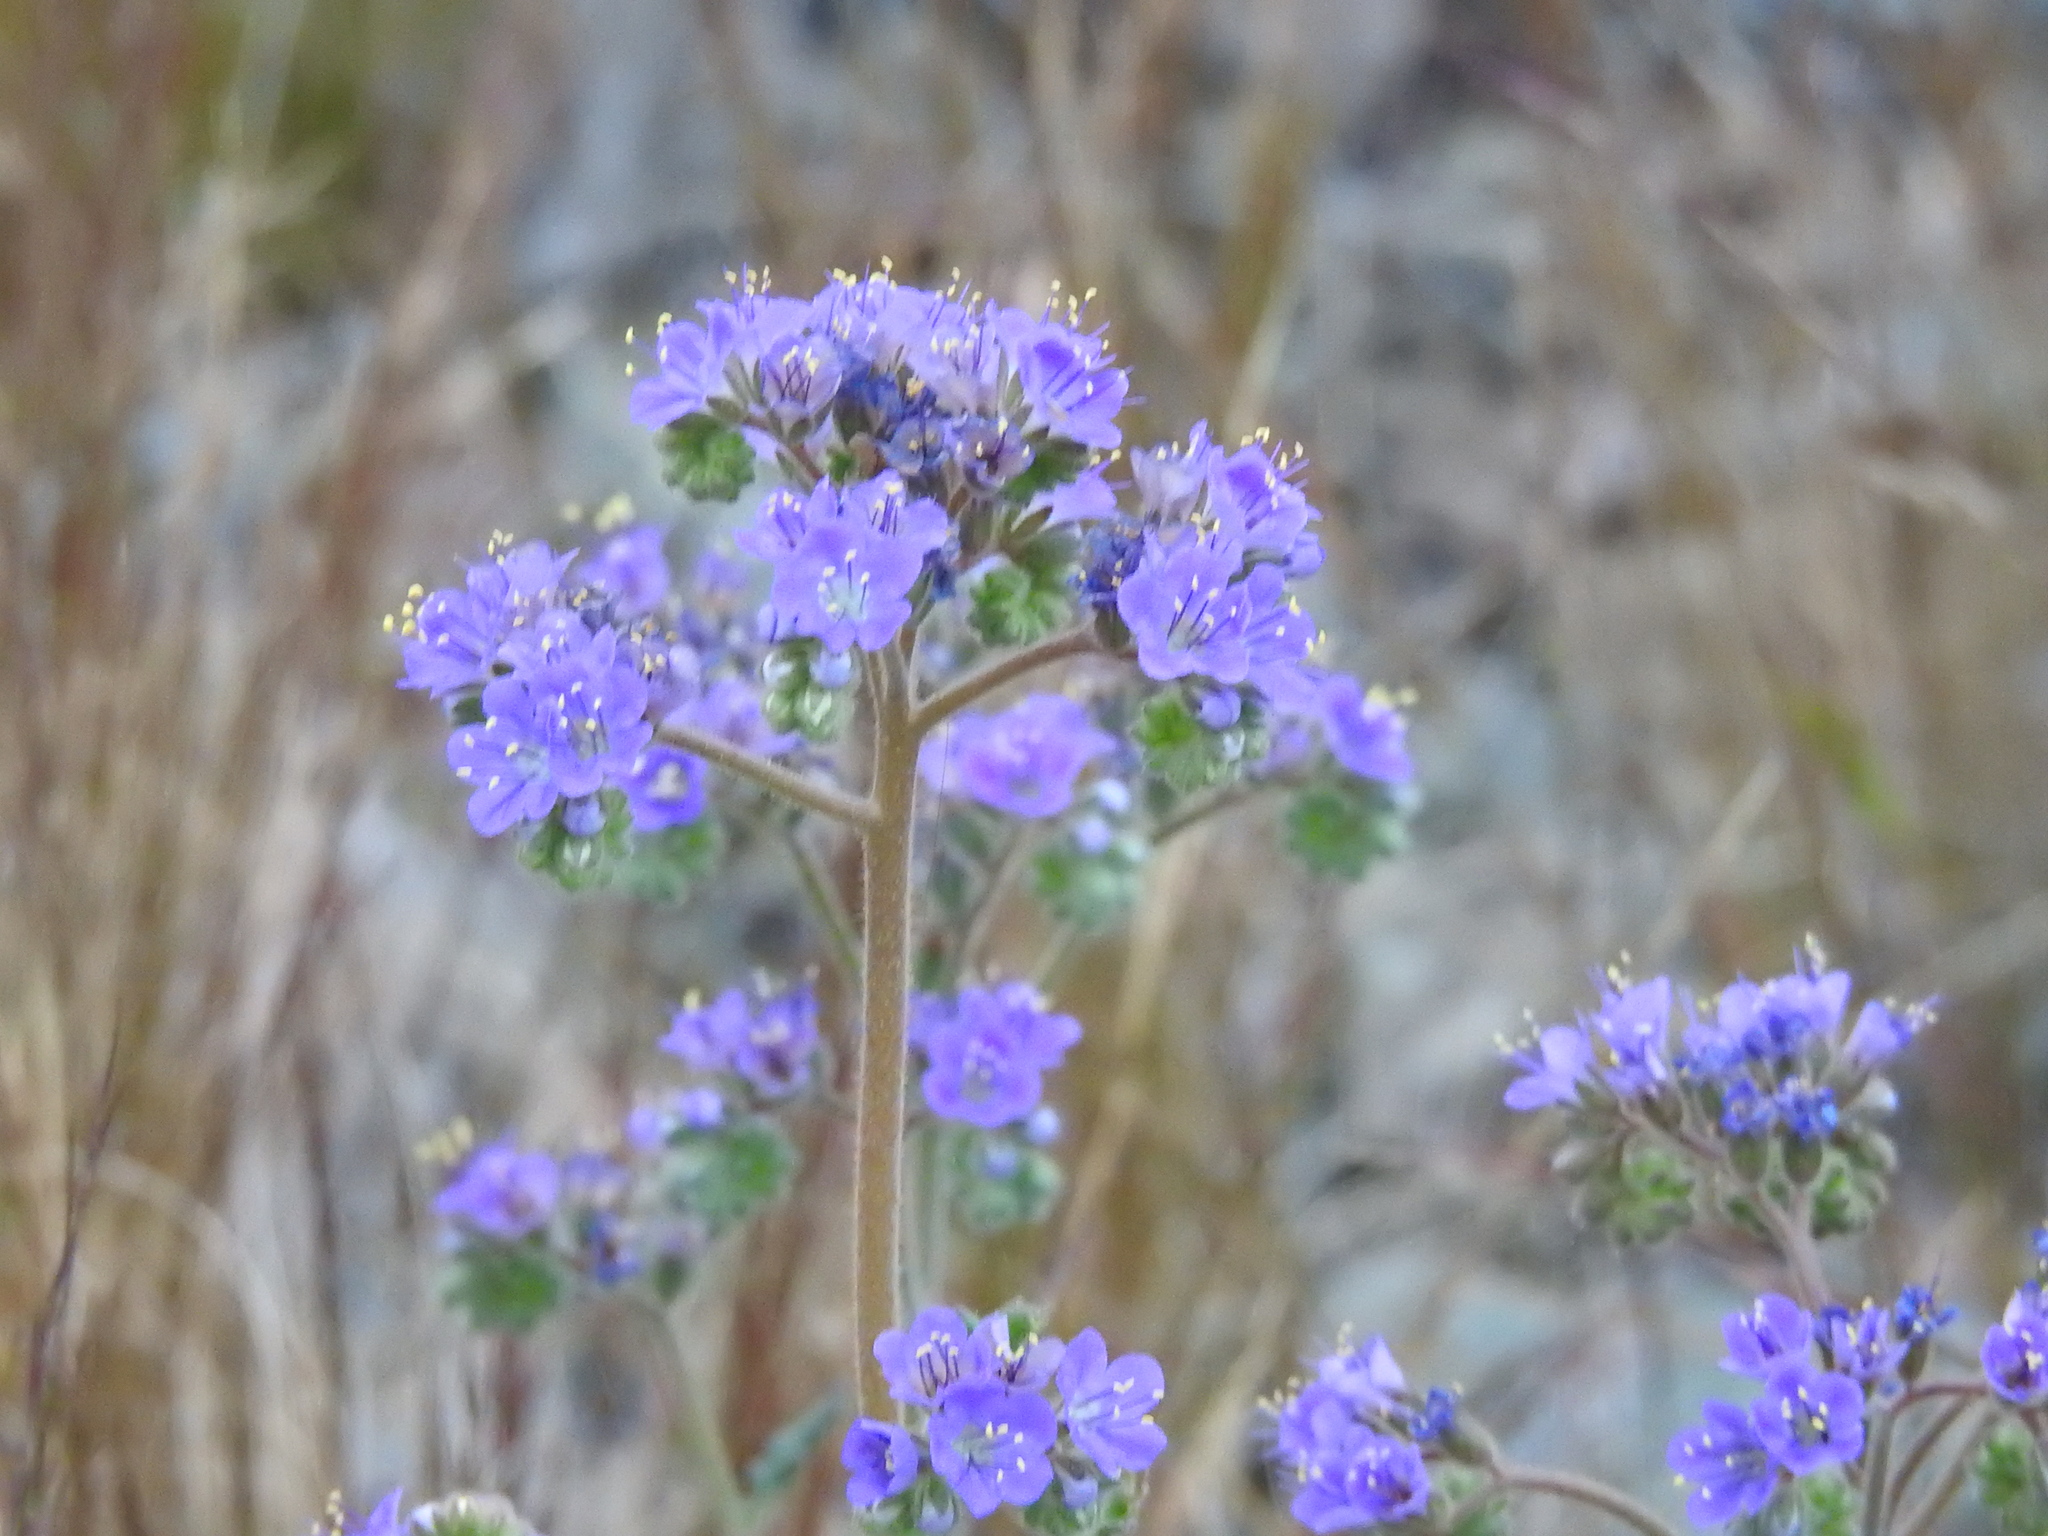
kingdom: Plantae
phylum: Tracheophyta
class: Magnoliopsida
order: Boraginales
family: Hydrophyllaceae
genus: Phacelia
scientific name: Phacelia crenulata
